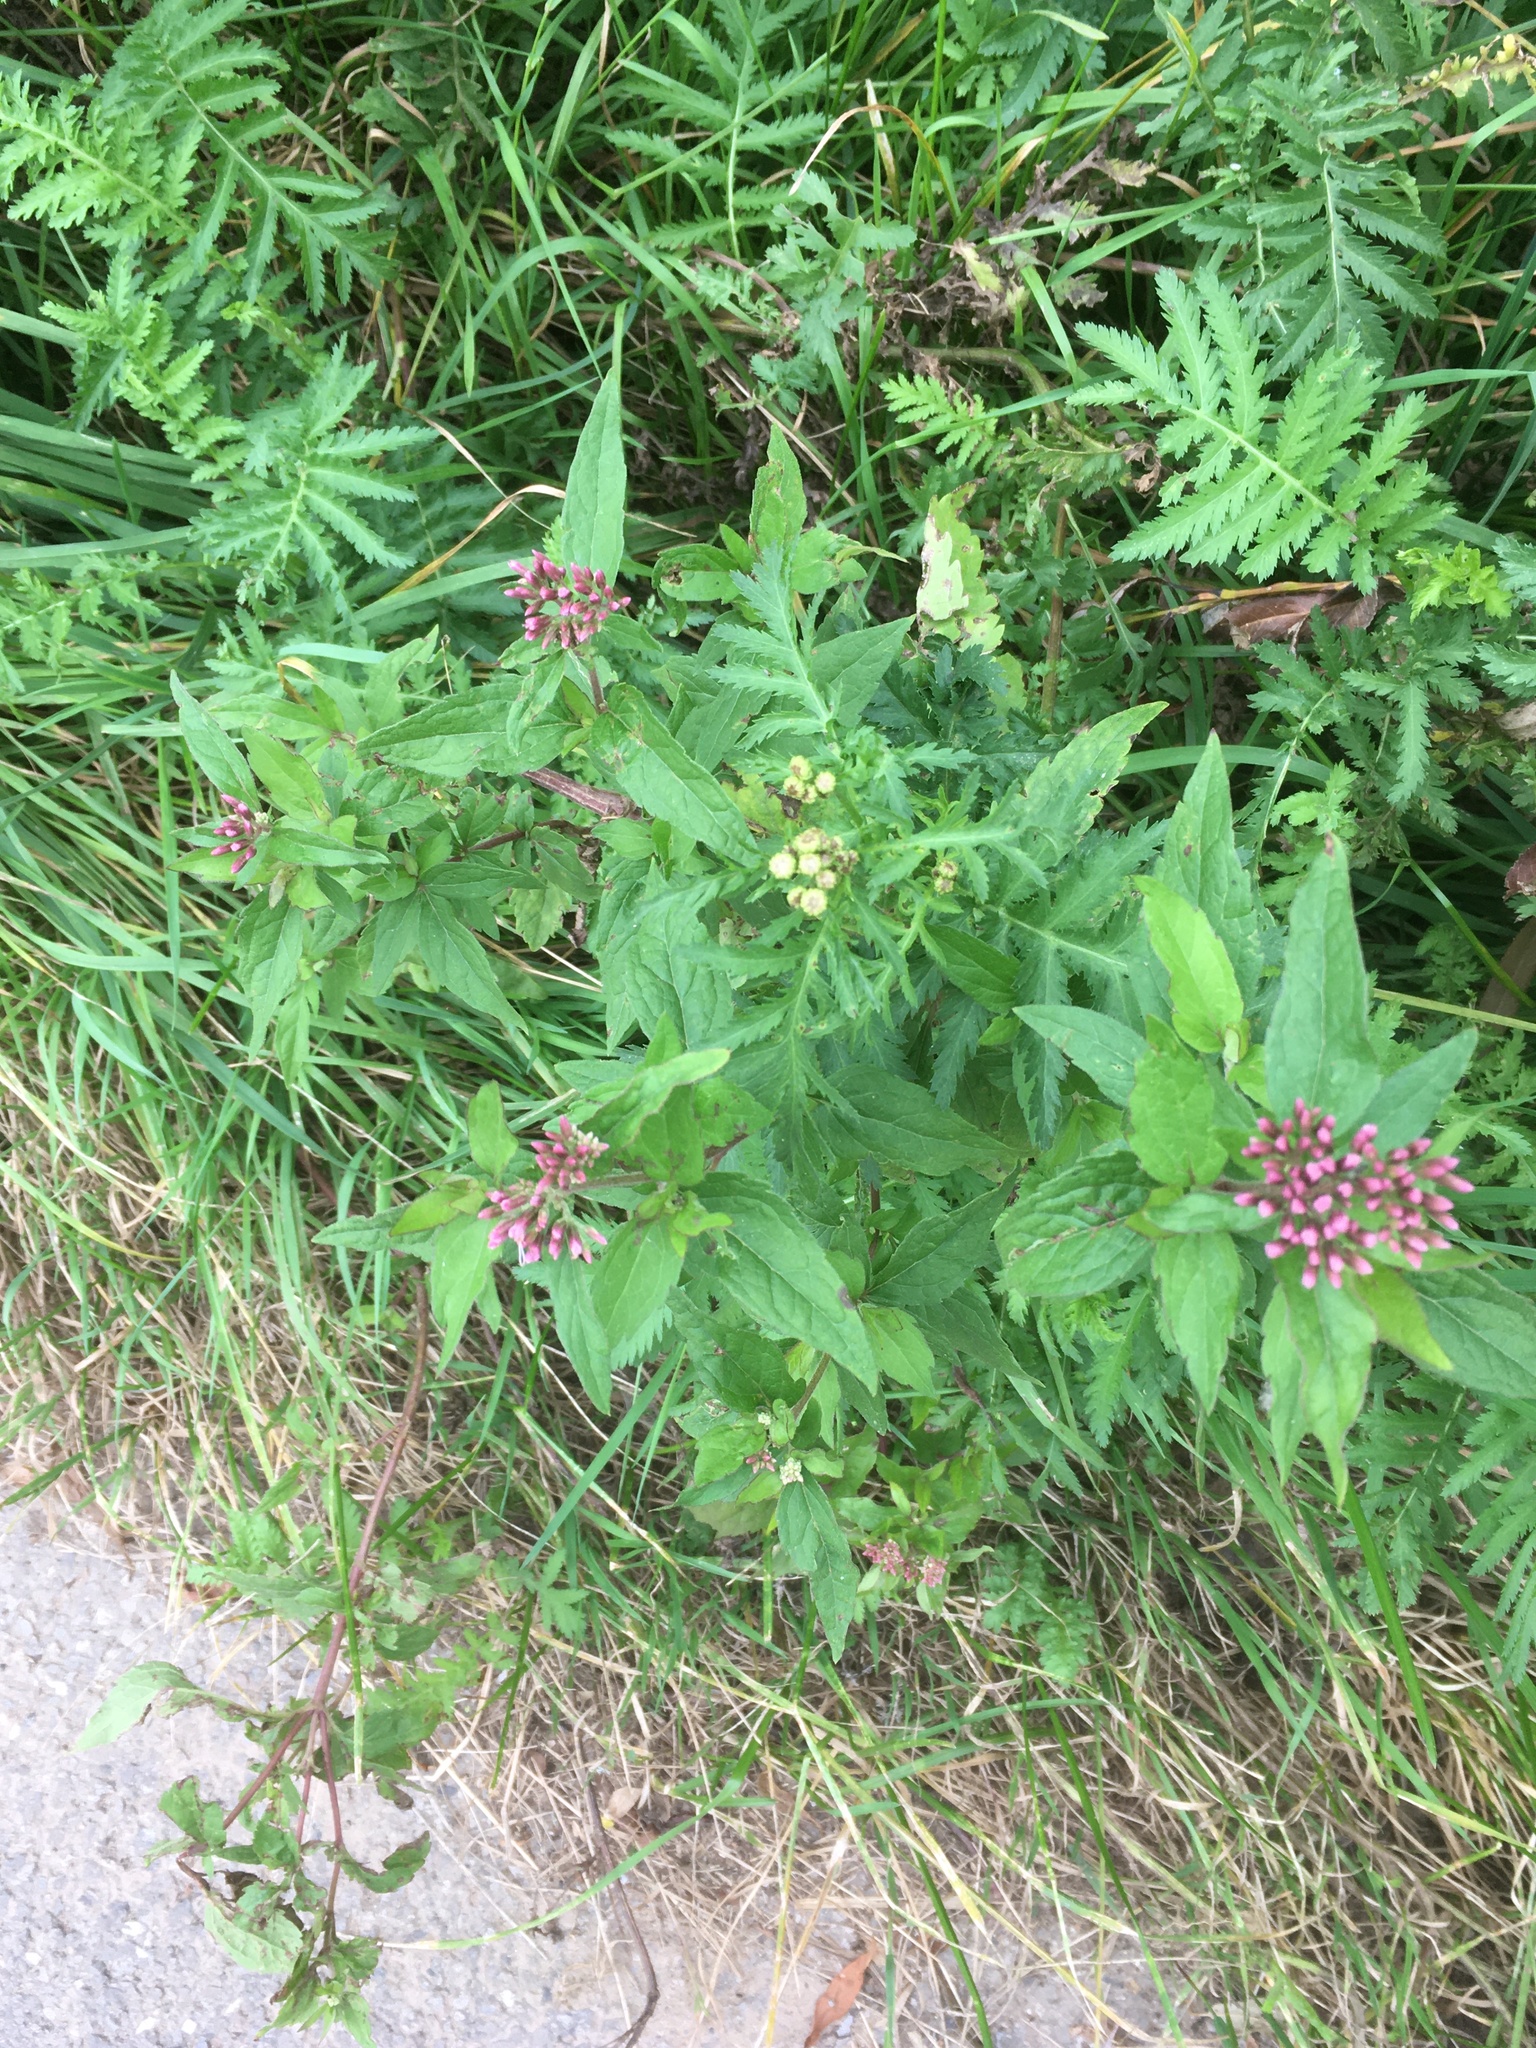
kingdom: Plantae
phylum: Tracheophyta
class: Magnoliopsida
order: Asterales
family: Asteraceae
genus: Eupatorium
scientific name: Eupatorium cannabinum
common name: Hemp-agrimony
